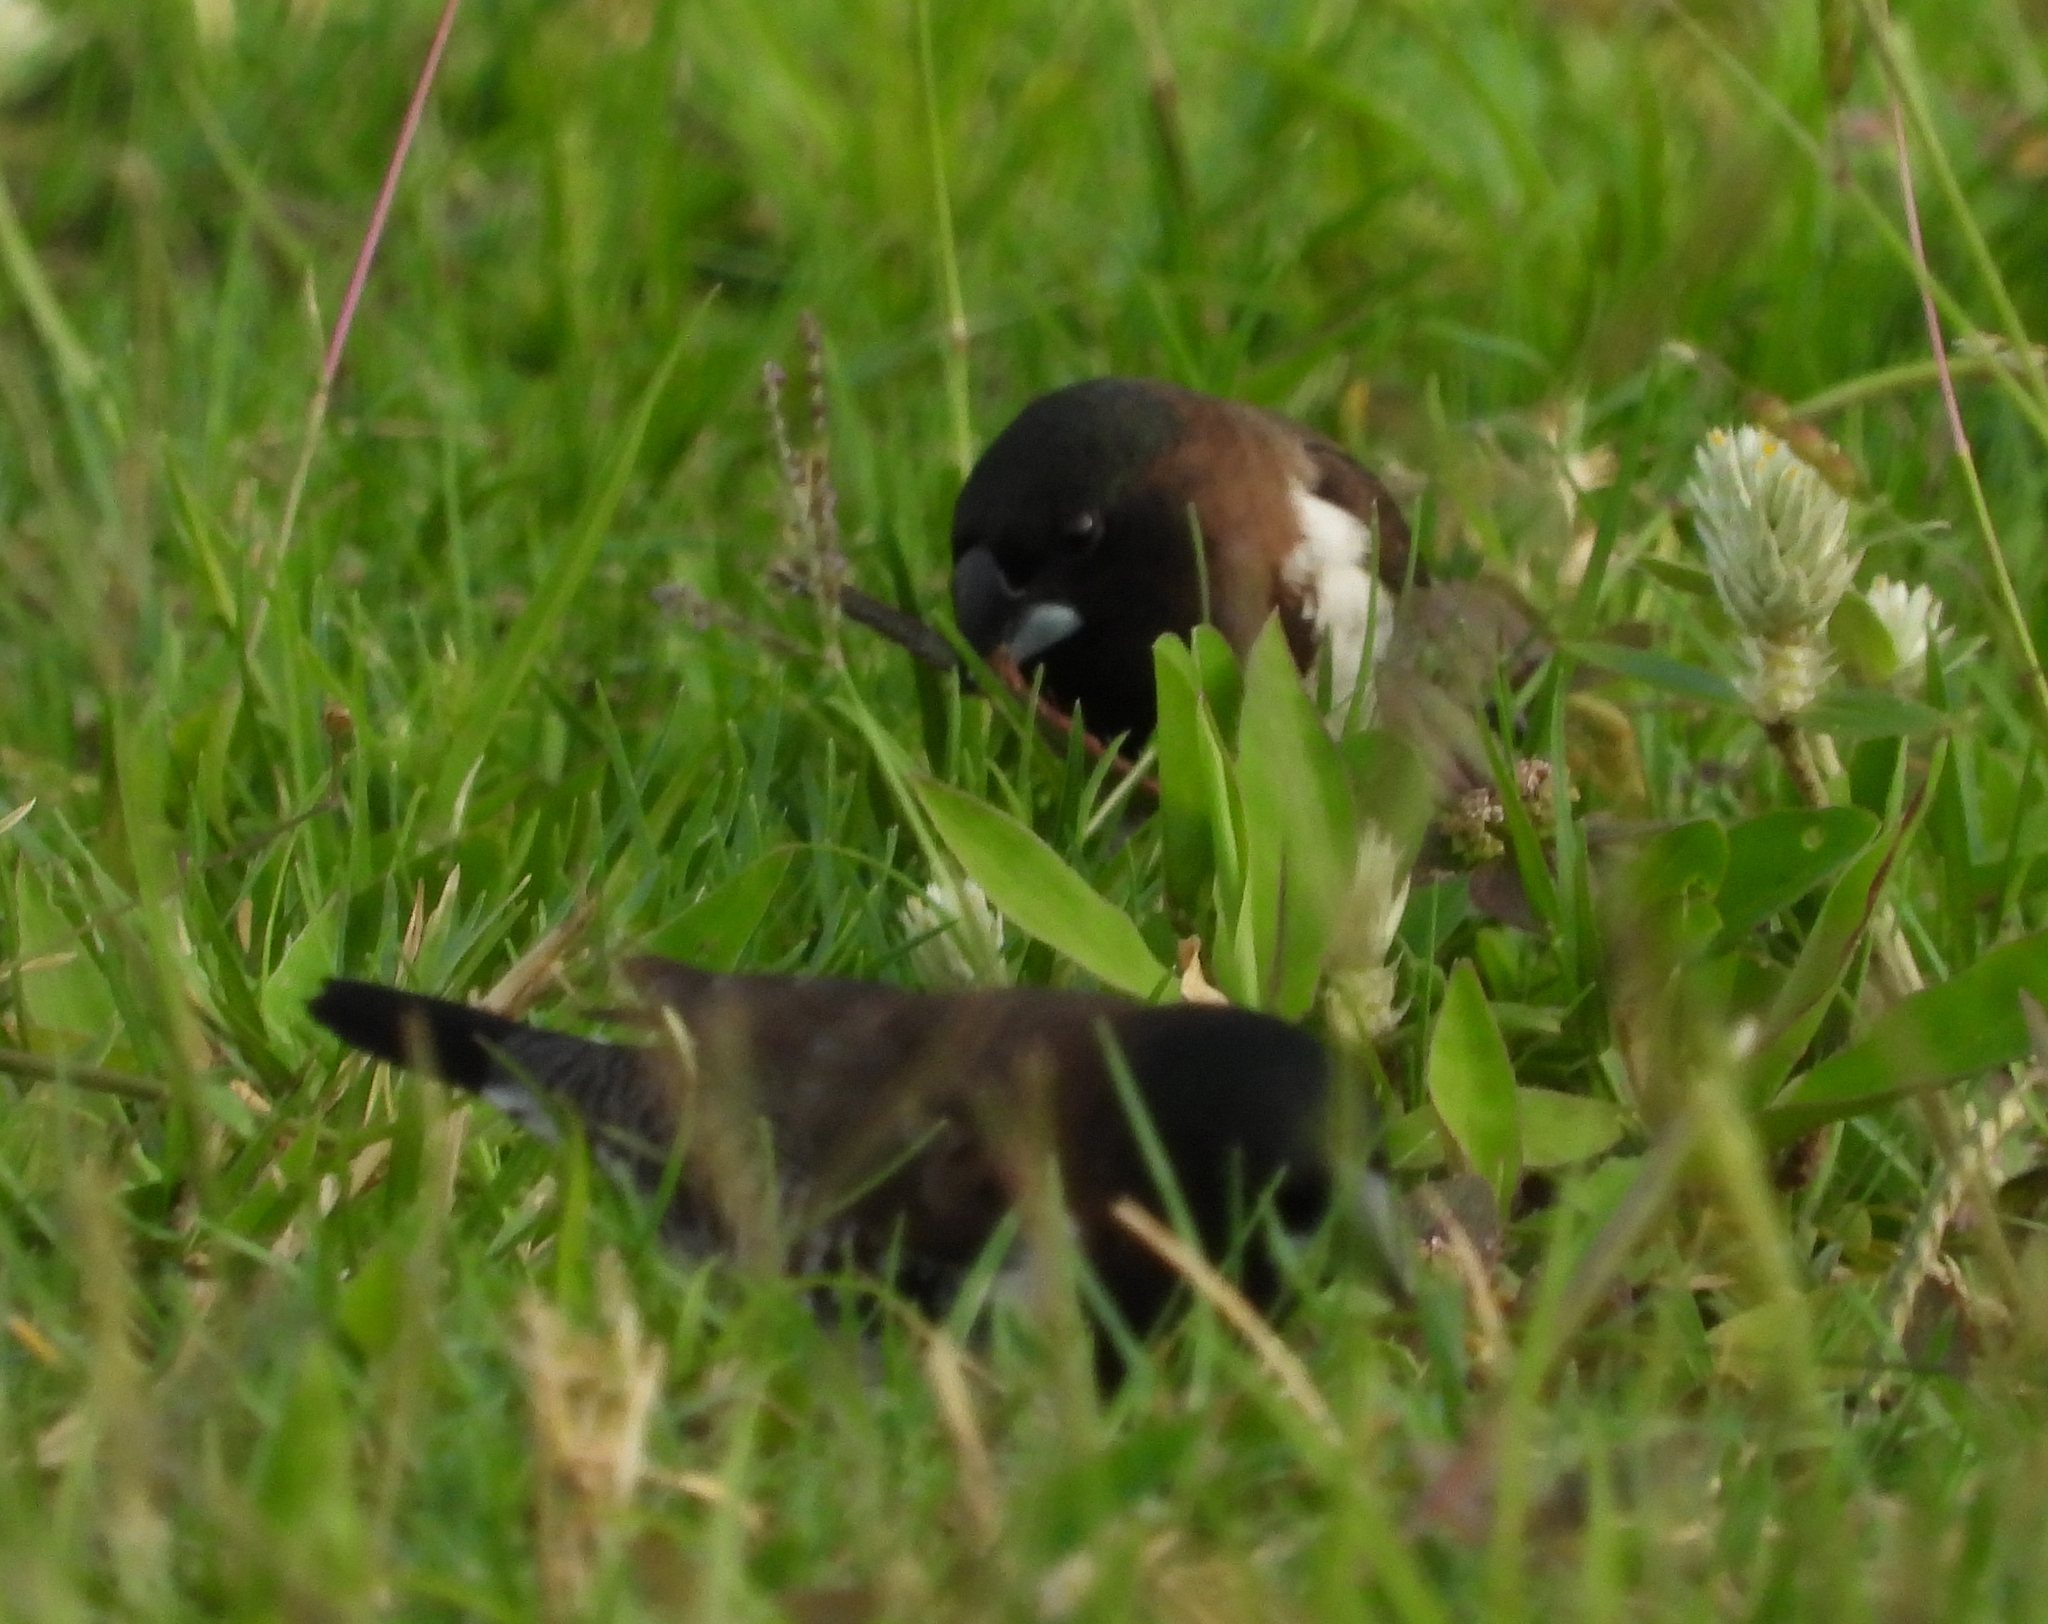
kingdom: Animalia
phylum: Chordata
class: Aves
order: Passeriformes
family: Estrildidae
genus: Lonchura
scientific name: Lonchura cucullata
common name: Bronze mannikin
